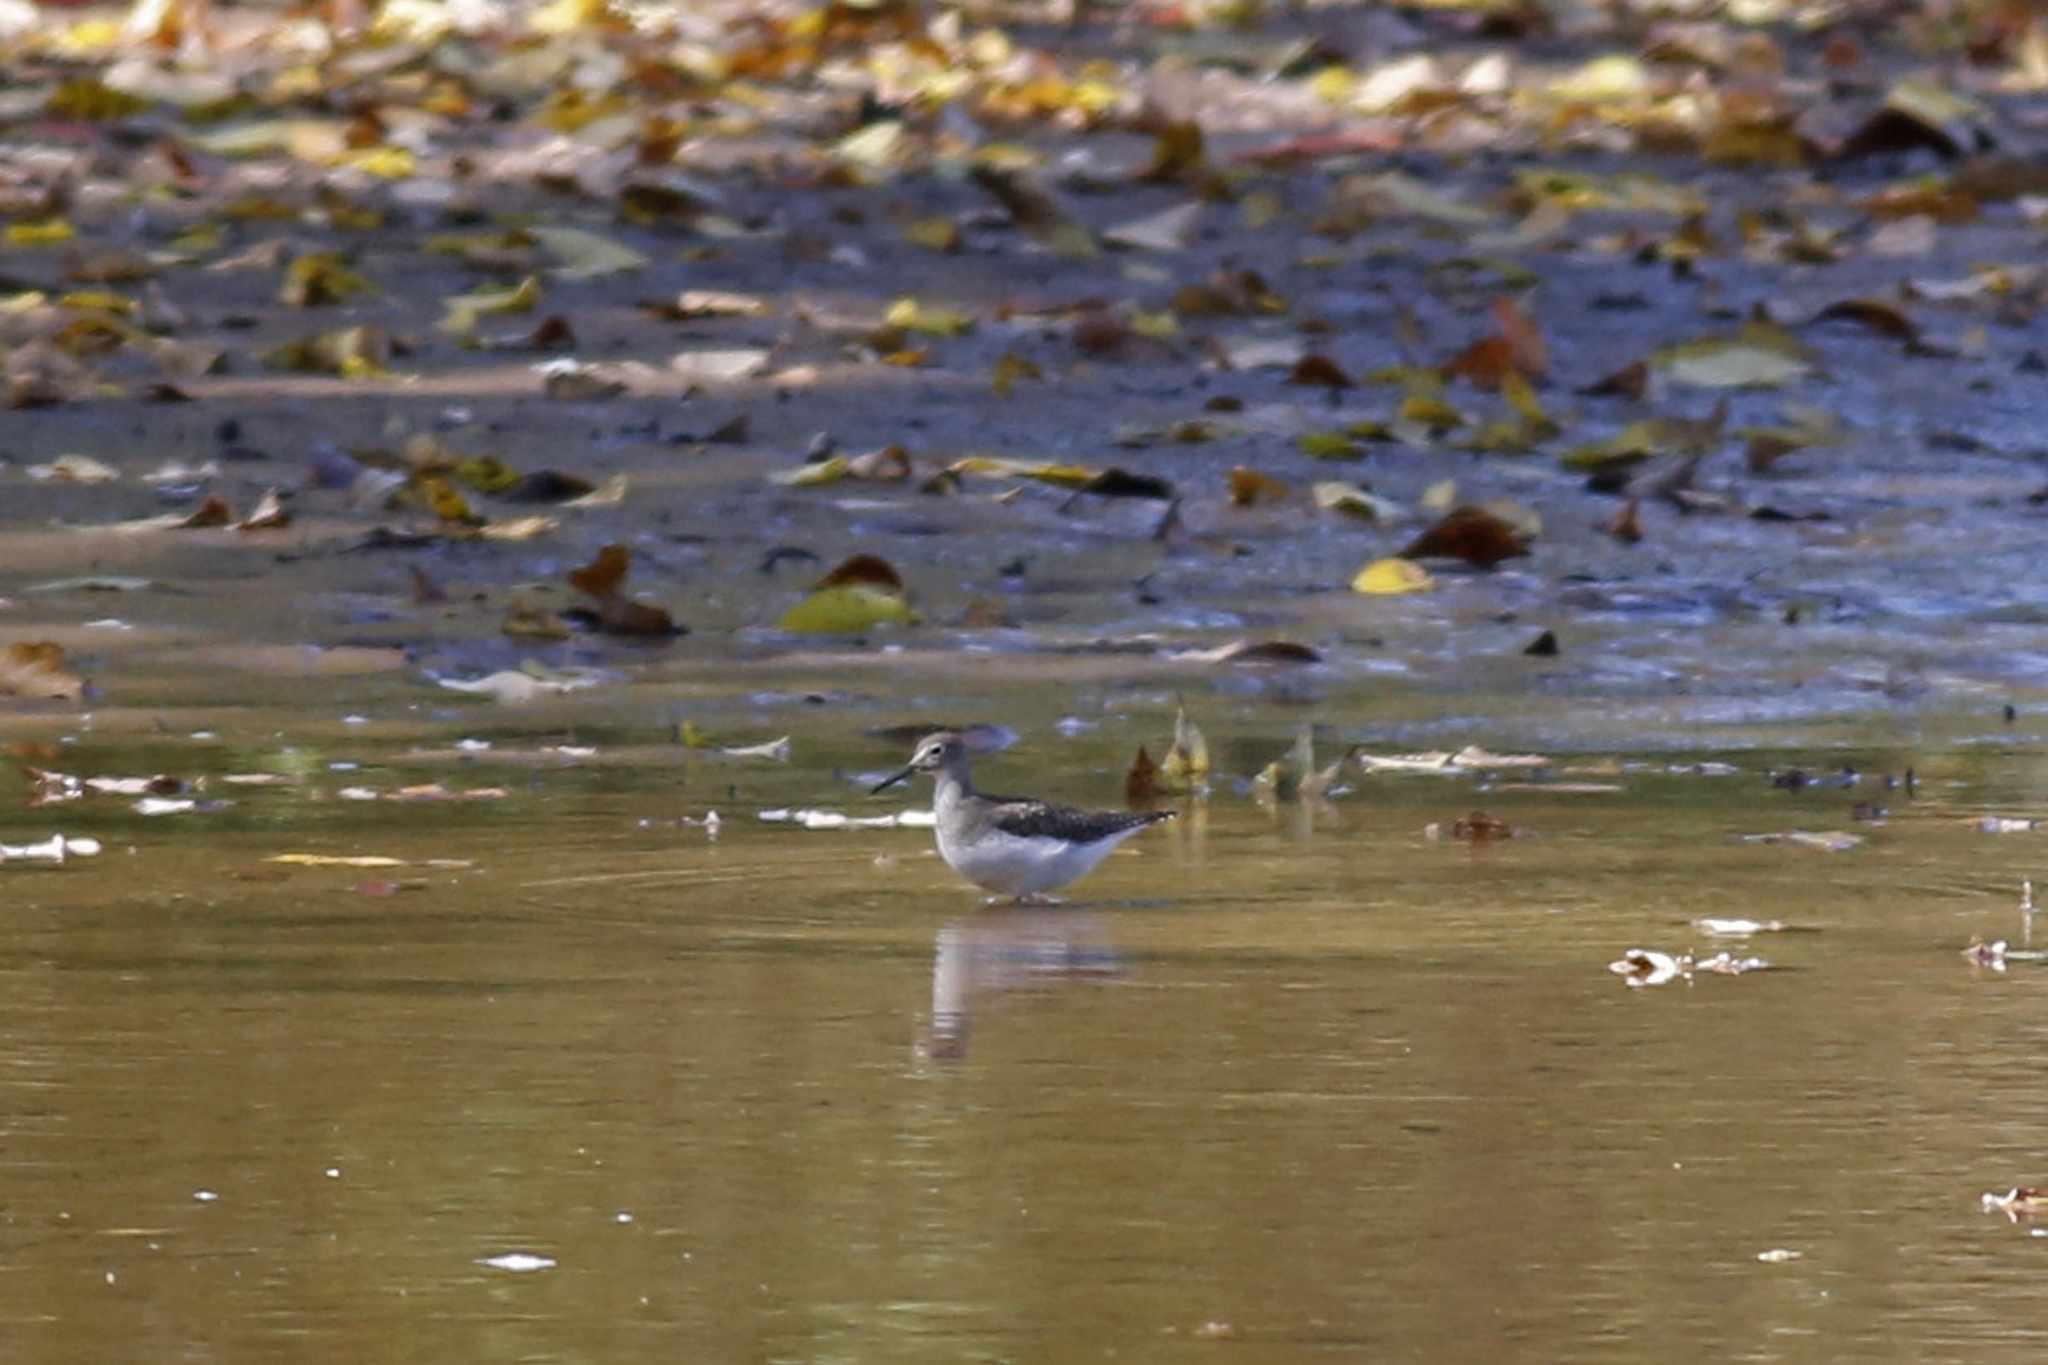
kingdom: Animalia
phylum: Chordata
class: Aves
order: Charadriiformes
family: Scolopacidae
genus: Tringa
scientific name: Tringa solitaria
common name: Solitary sandpiper
